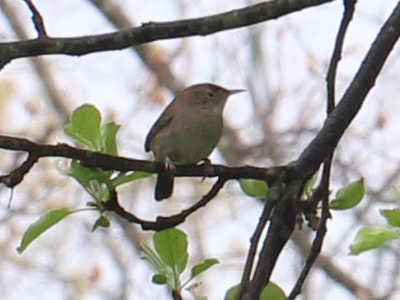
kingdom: Animalia
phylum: Chordata
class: Aves
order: Passeriformes
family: Troglodytidae
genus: Troglodytes
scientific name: Troglodytes aedon
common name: House wren
